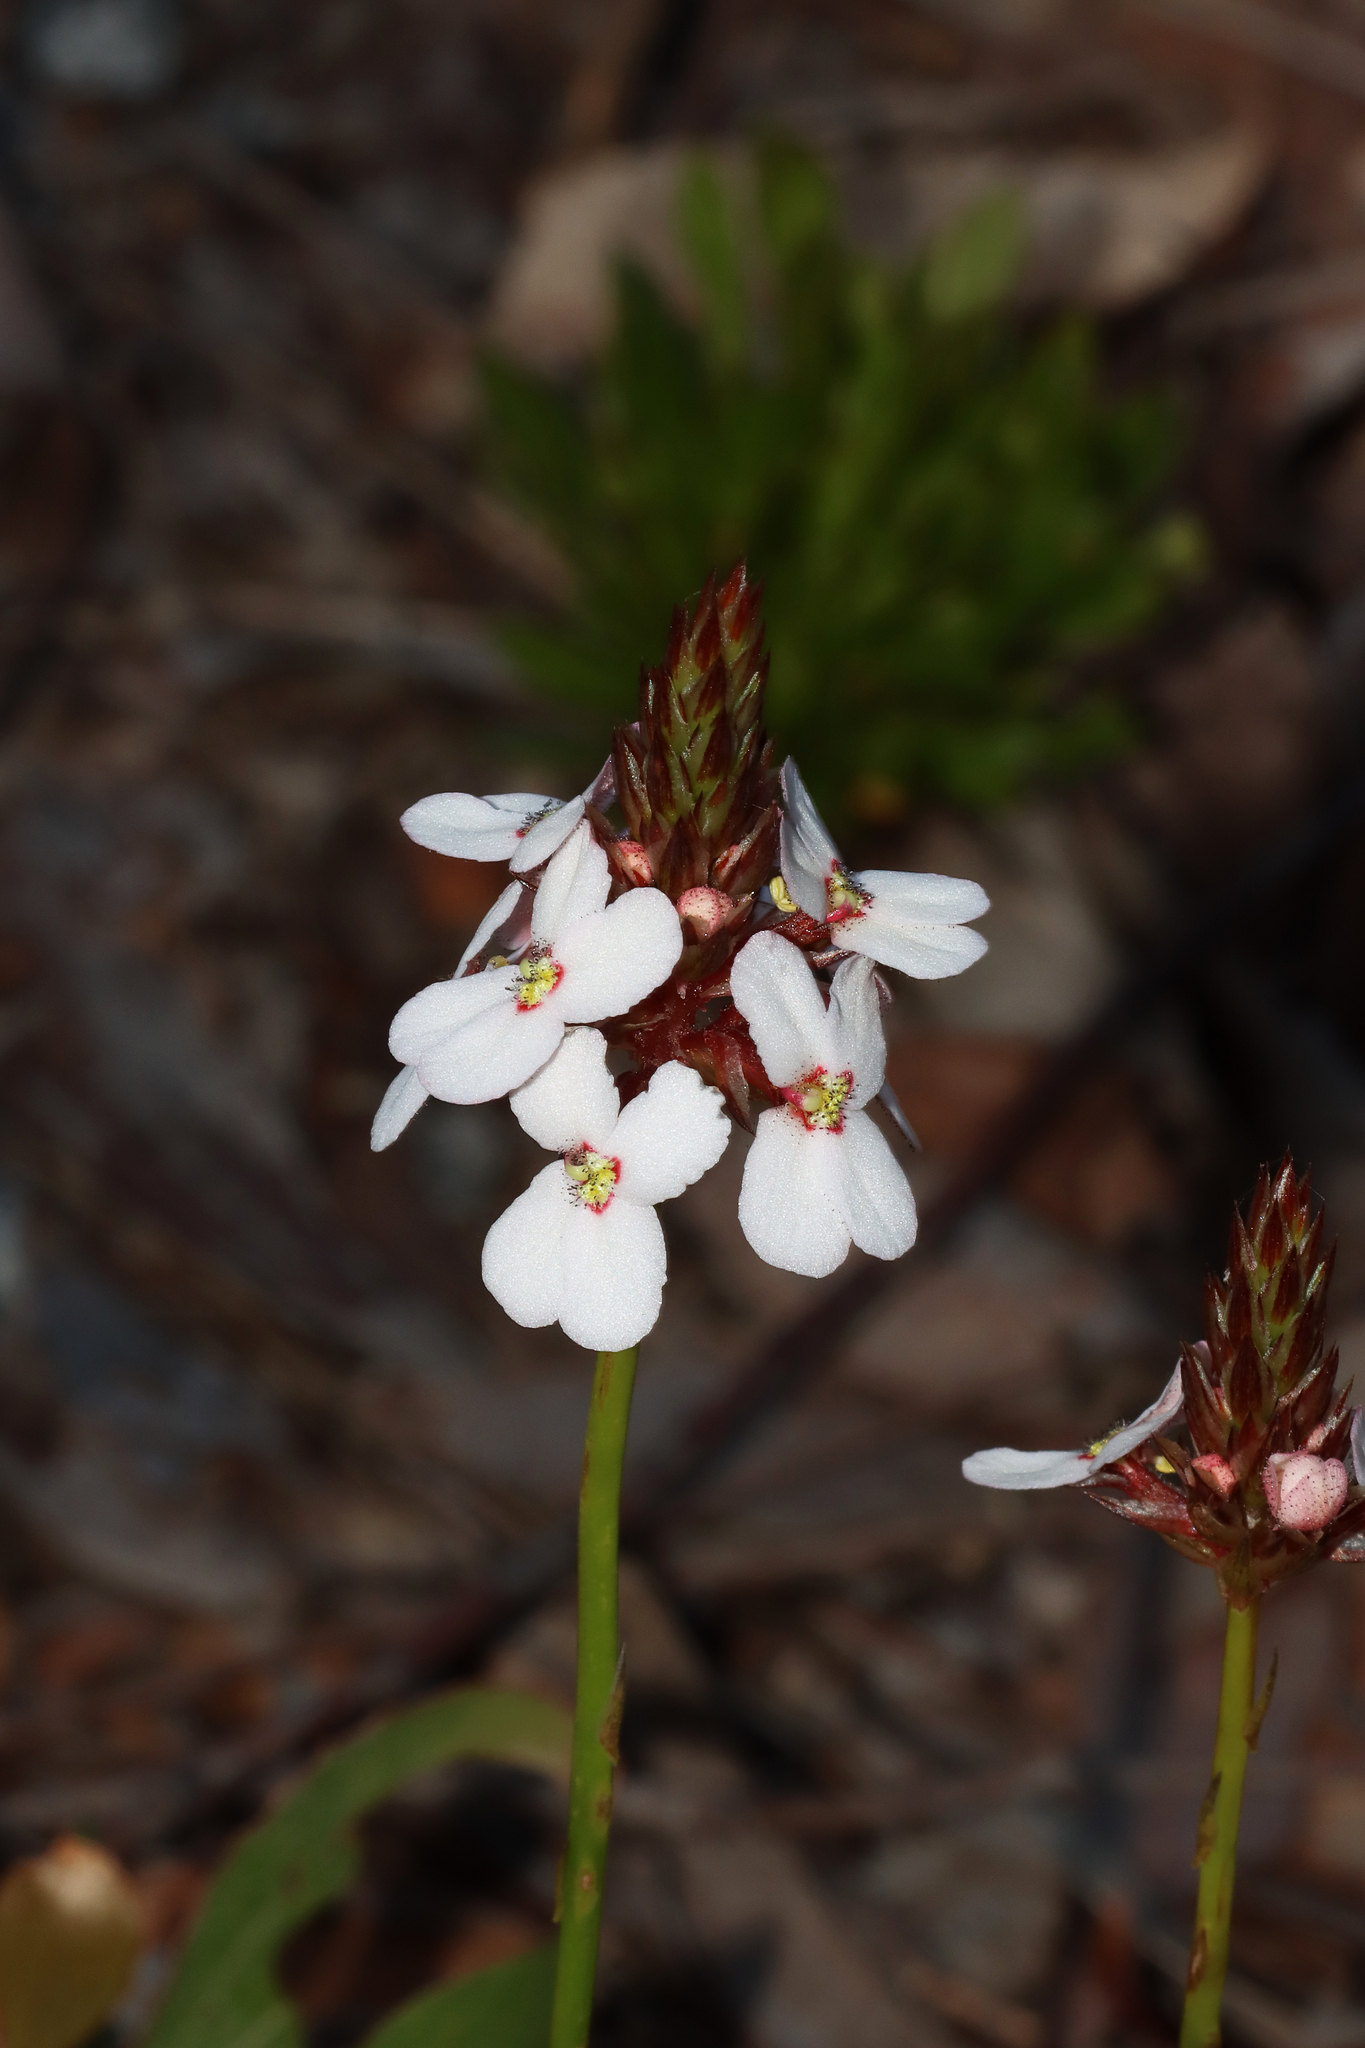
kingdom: Plantae
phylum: Tracheophyta
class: Magnoliopsida
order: Asterales
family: Stylidiaceae
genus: Stylidium
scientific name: Stylidium scariosum
